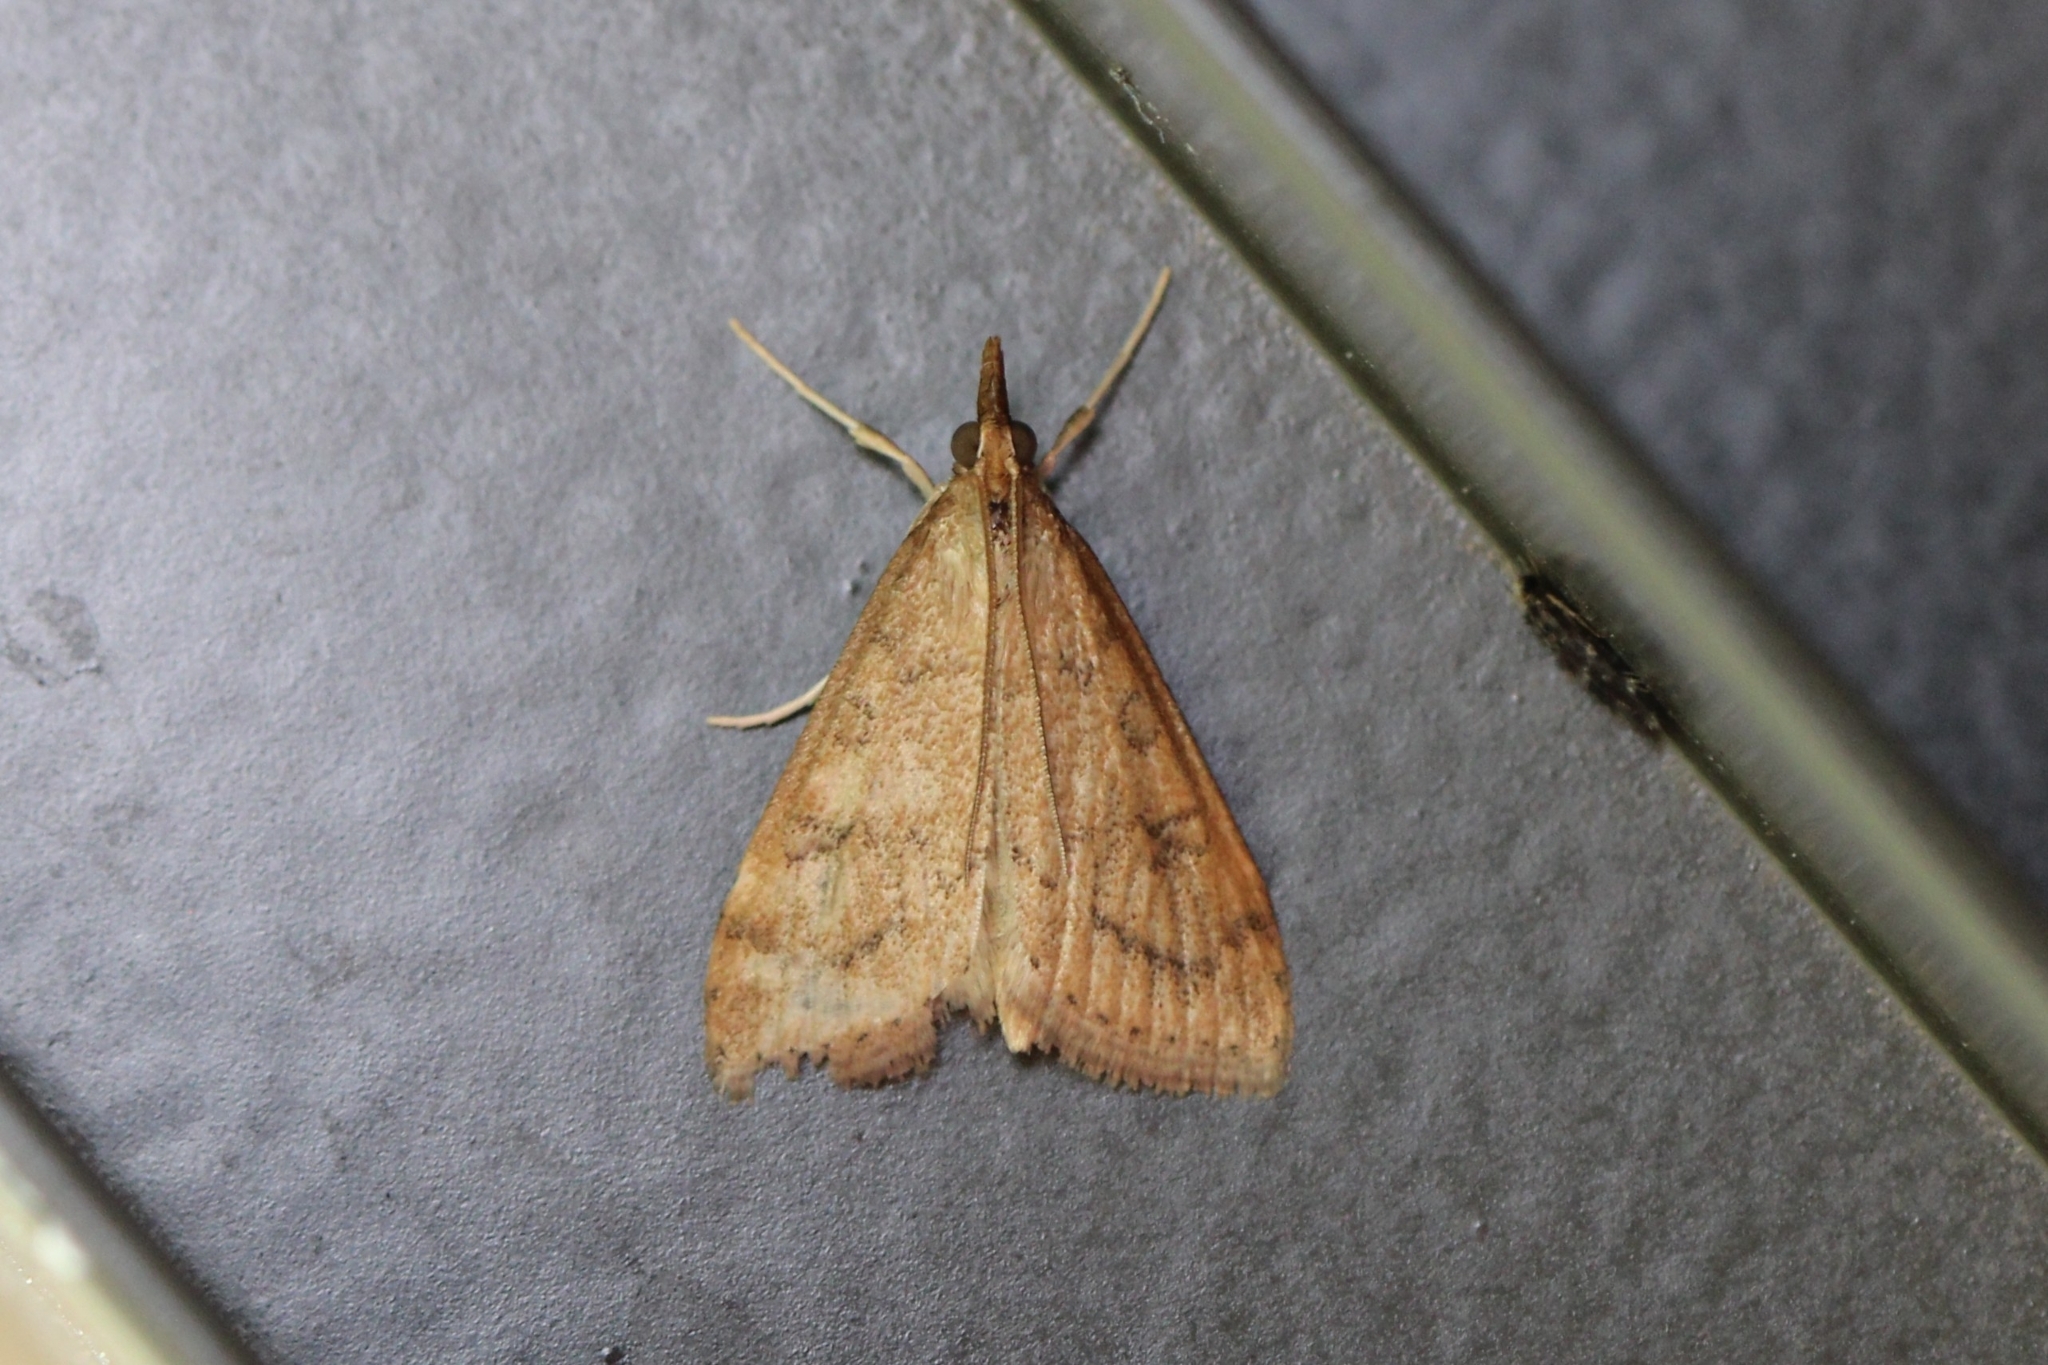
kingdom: Animalia
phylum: Arthropoda
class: Insecta
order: Lepidoptera
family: Crambidae
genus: Udea
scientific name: Udea rubigalis
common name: Celery leaftier moth
